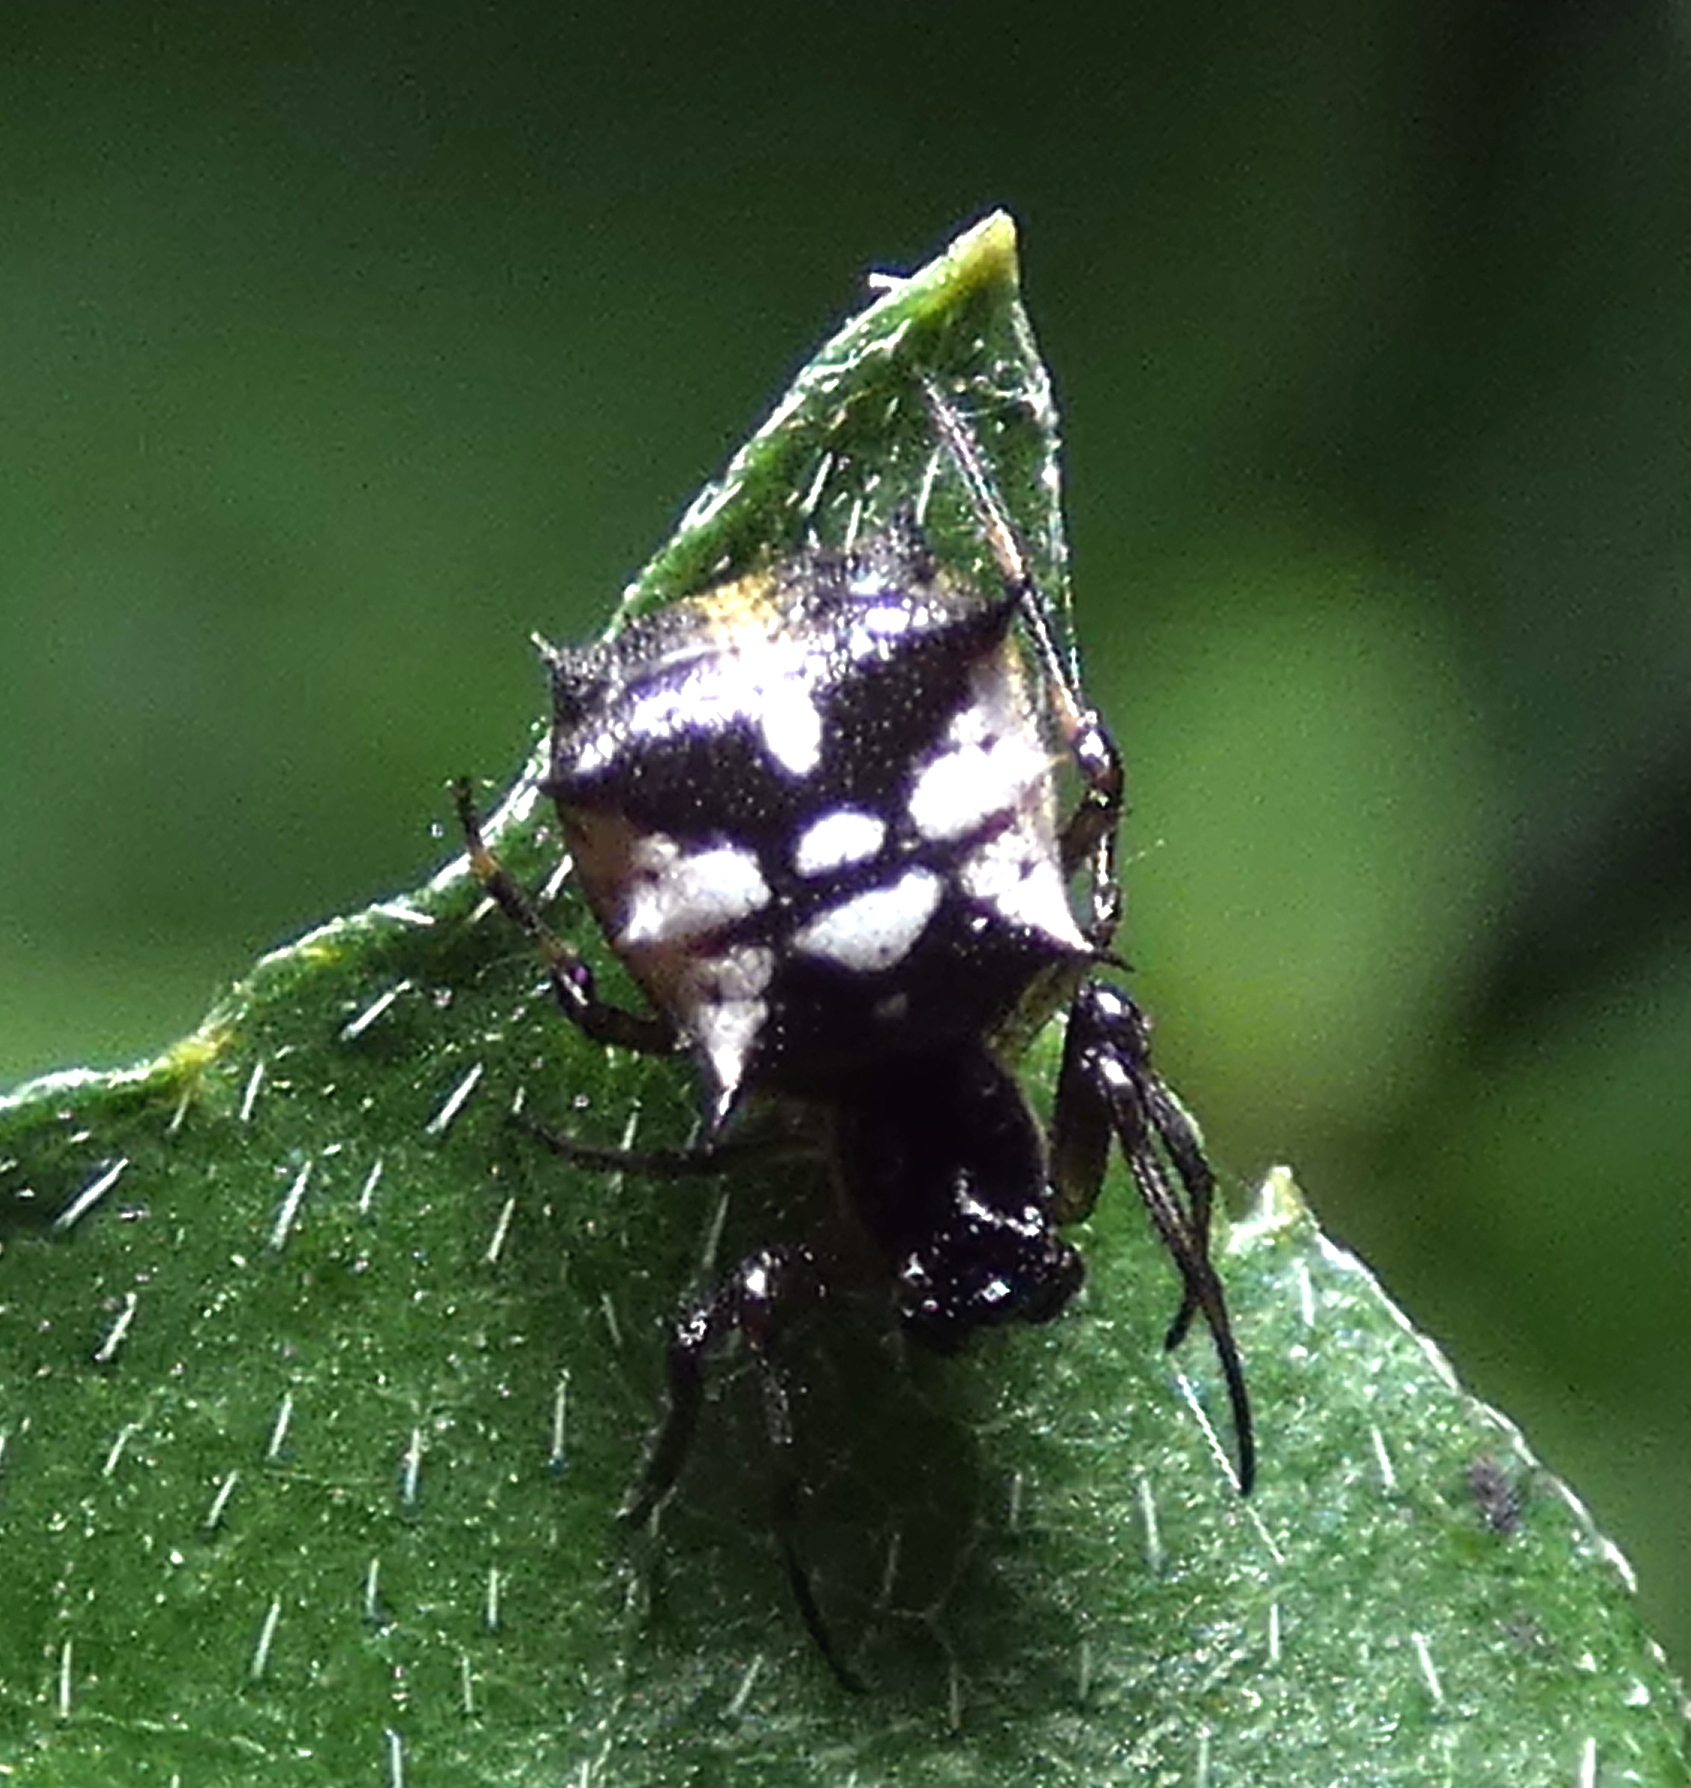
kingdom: Animalia
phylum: Arthropoda
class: Arachnida
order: Araneae
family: Araneidae
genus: Micrathena
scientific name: Micrathena picta
